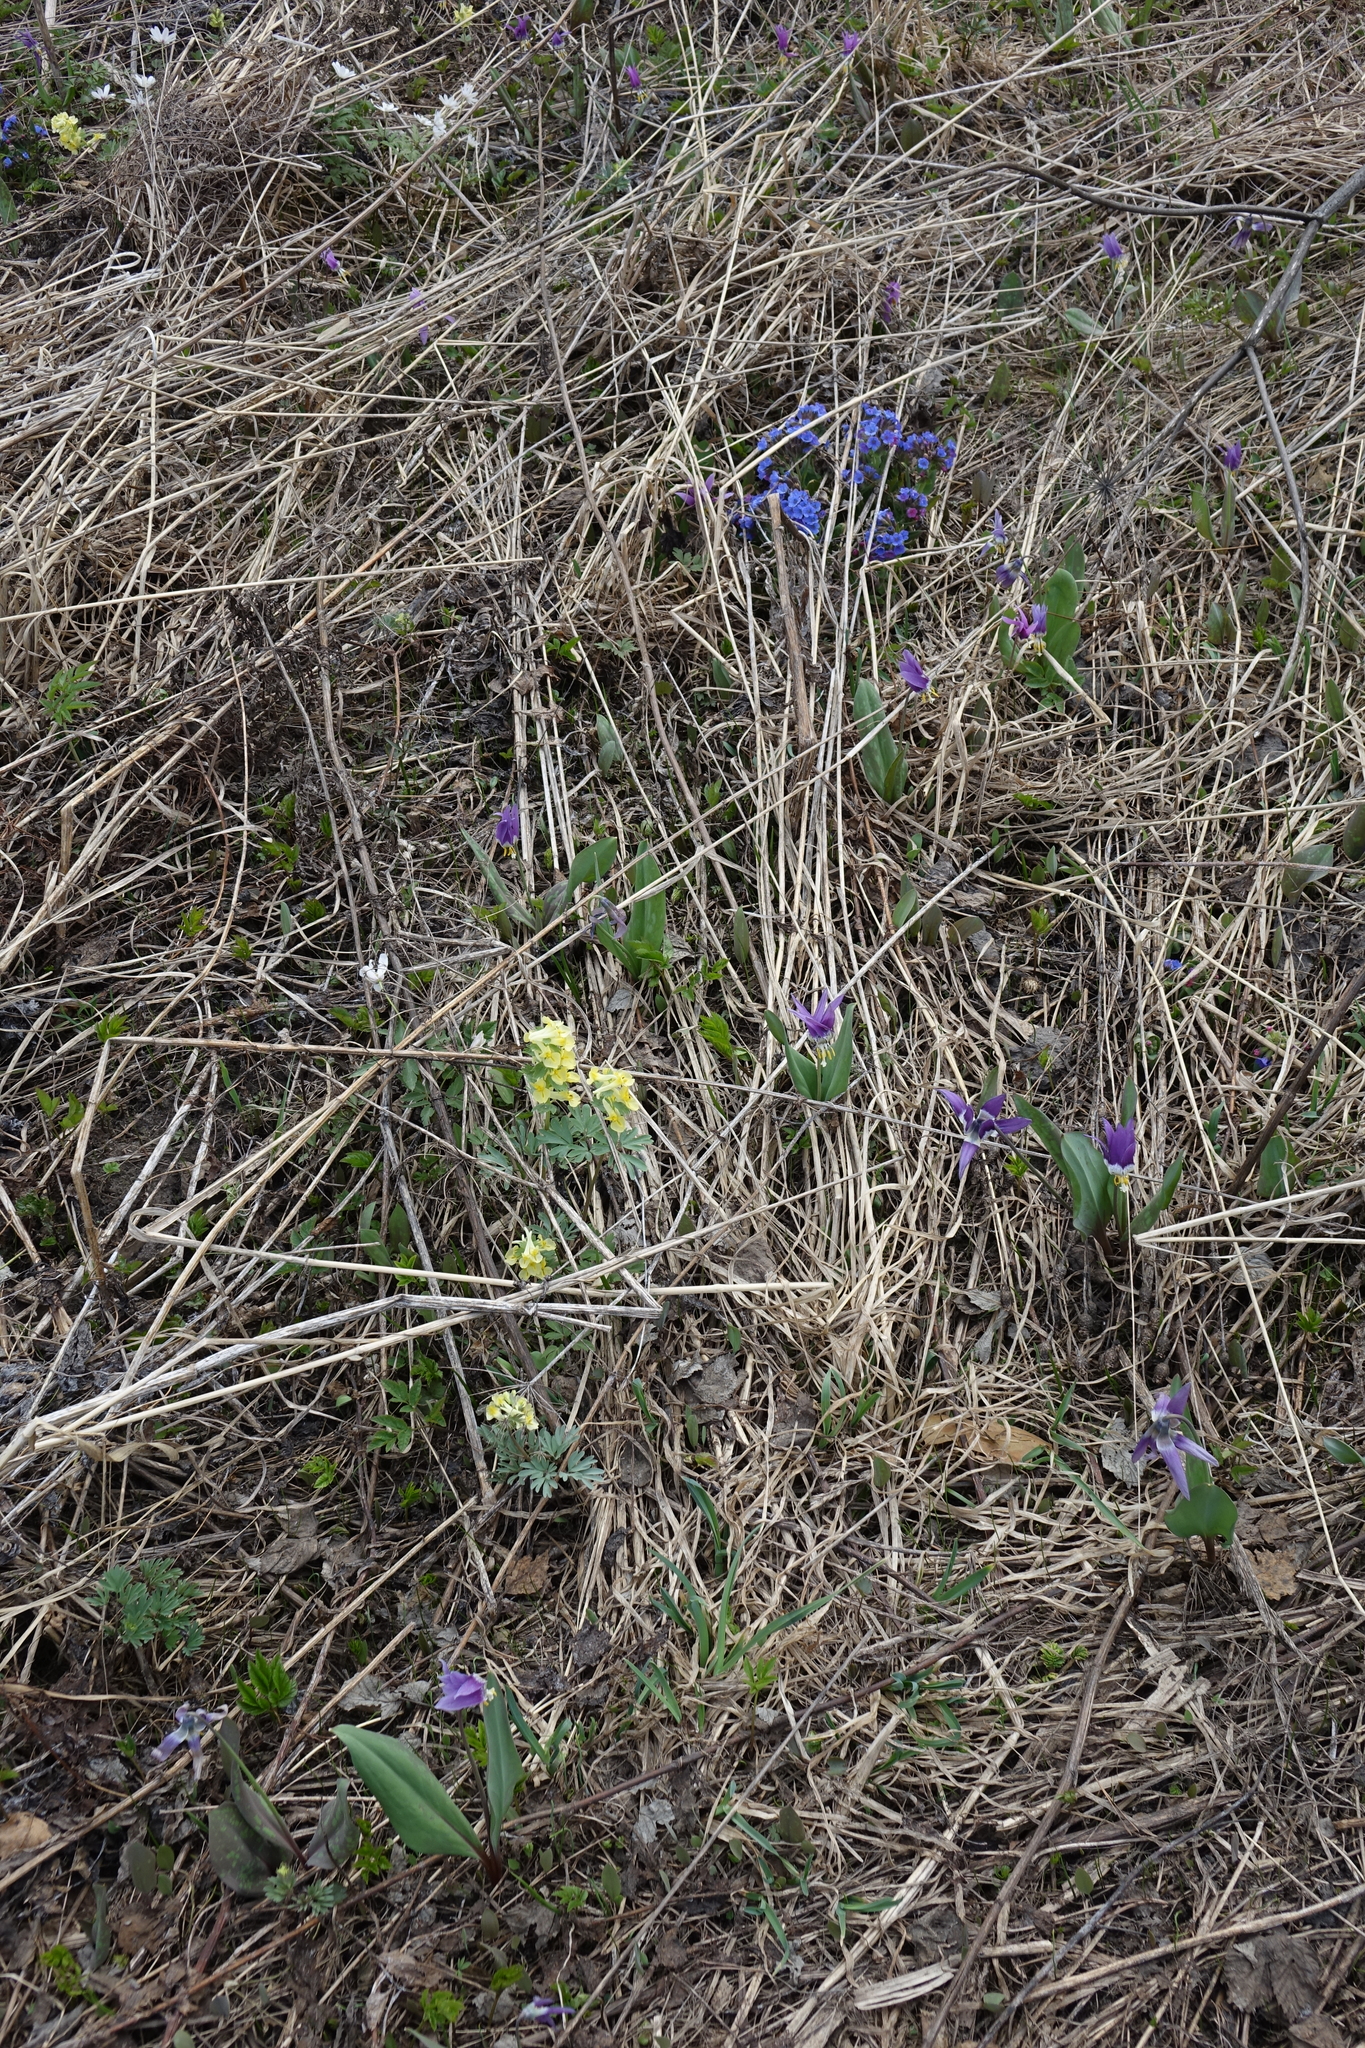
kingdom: Plantae
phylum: Tracheophyta
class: Magnoliopsida
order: Ranunculales
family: Papaveraceae
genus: Corydalis
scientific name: Corydalis bracteata
